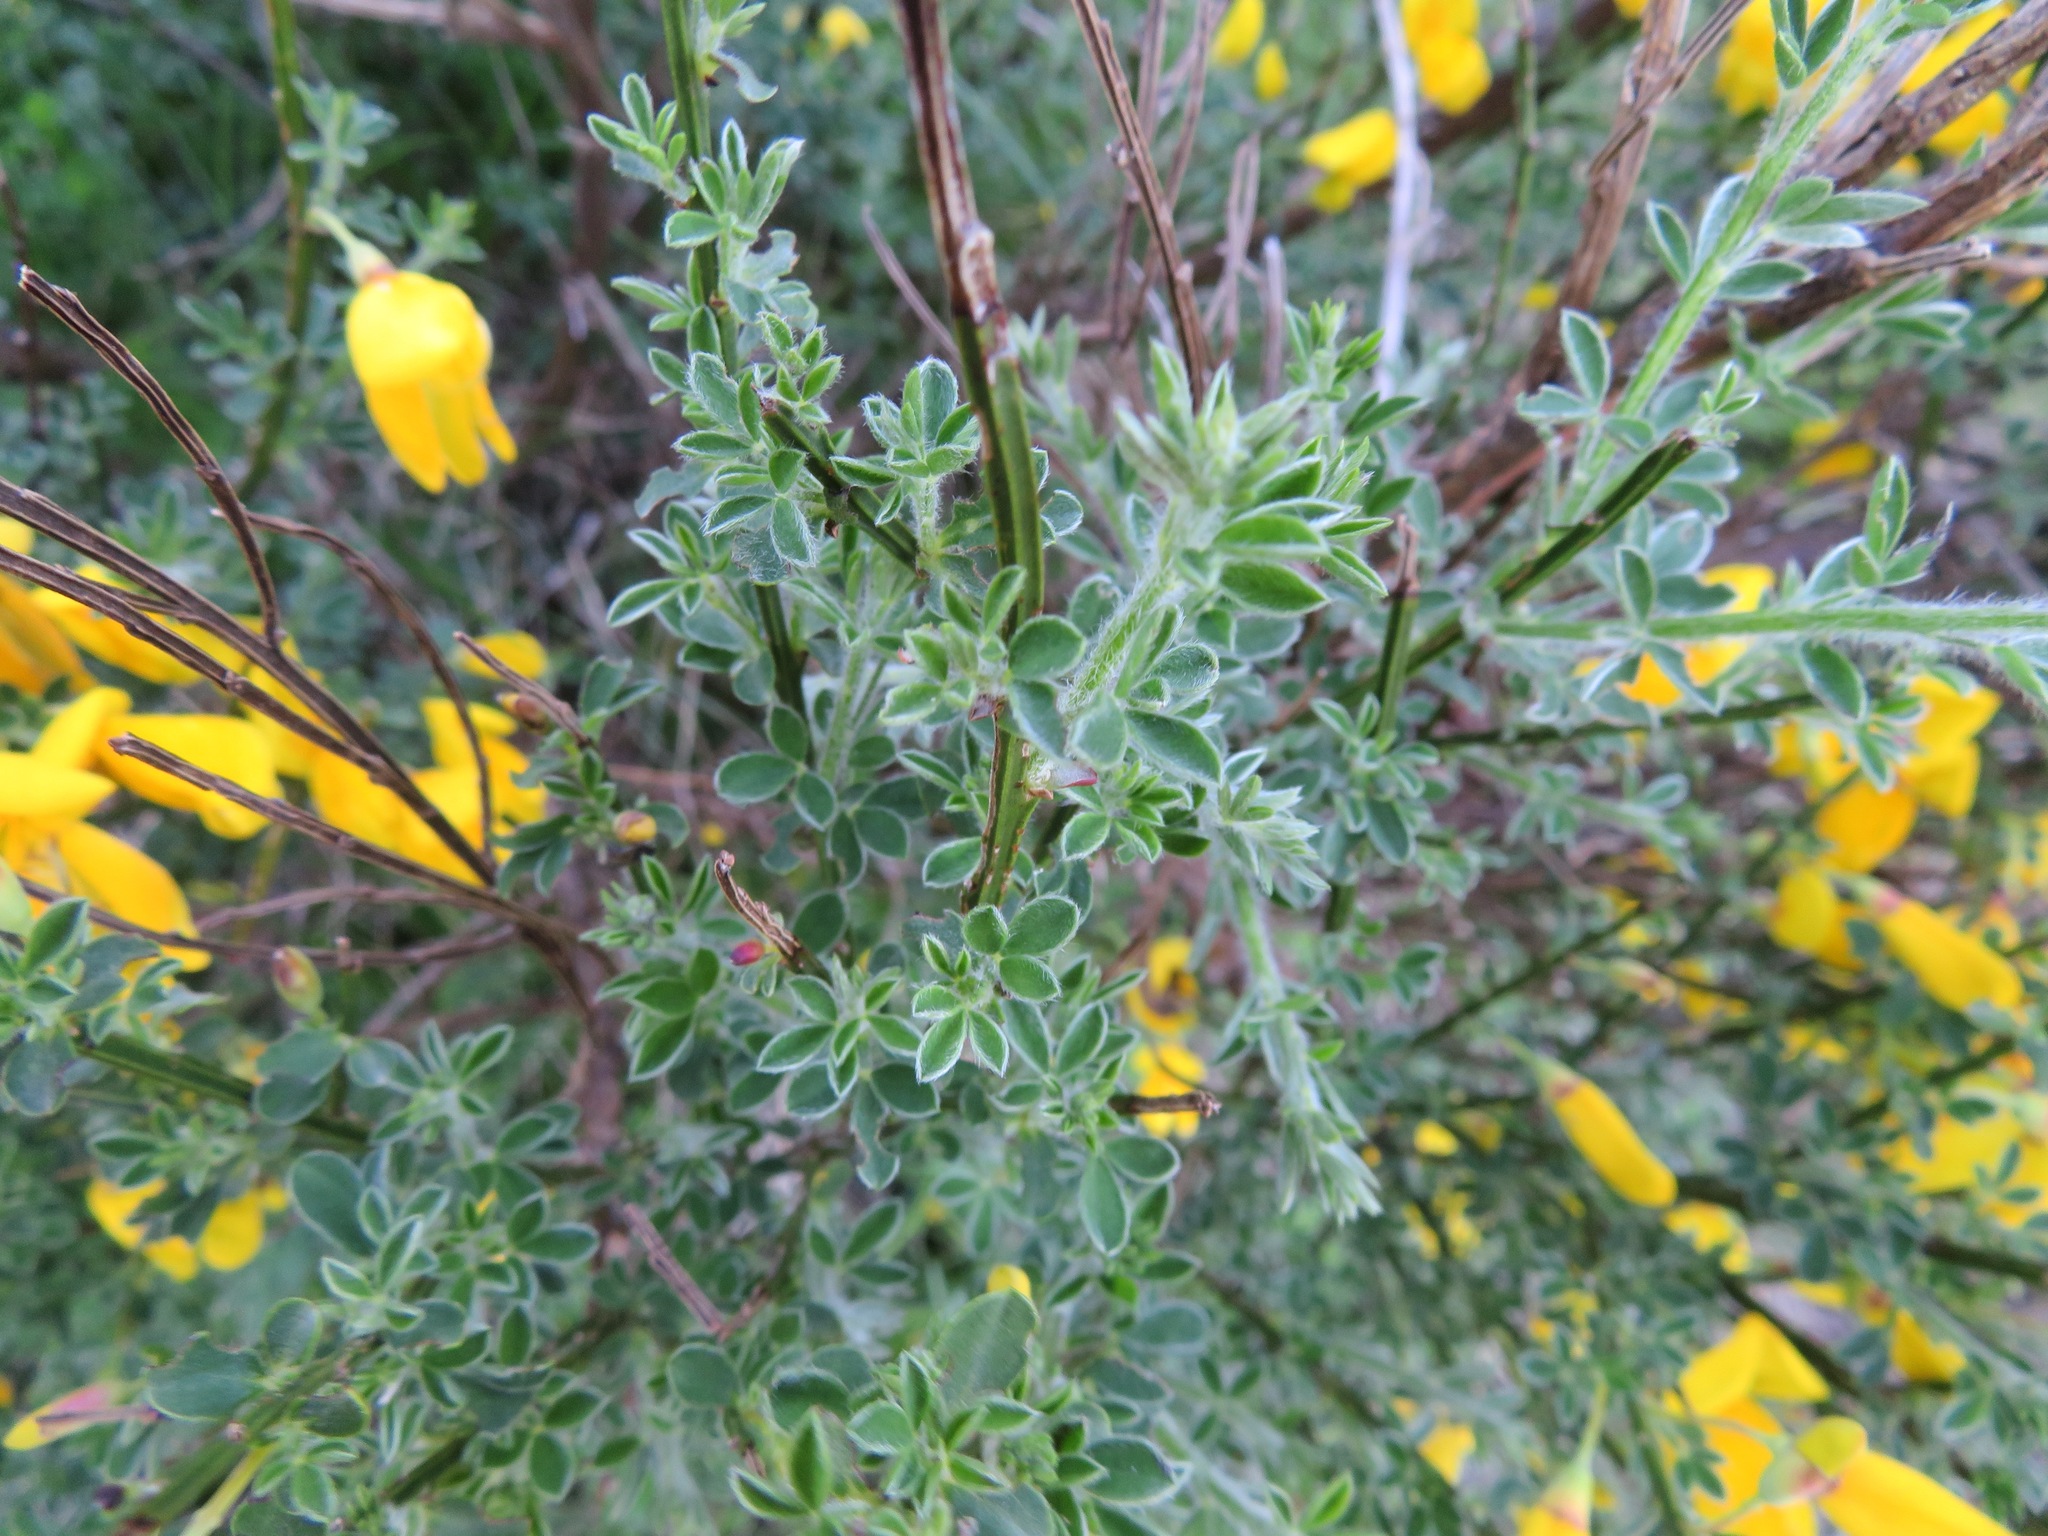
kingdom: Plantae
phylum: Tracheophyta
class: Magnoliopsida
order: Fabales
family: Fabaceae
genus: Cytisus
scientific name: Cytisus scoparius
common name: Scotch broom
